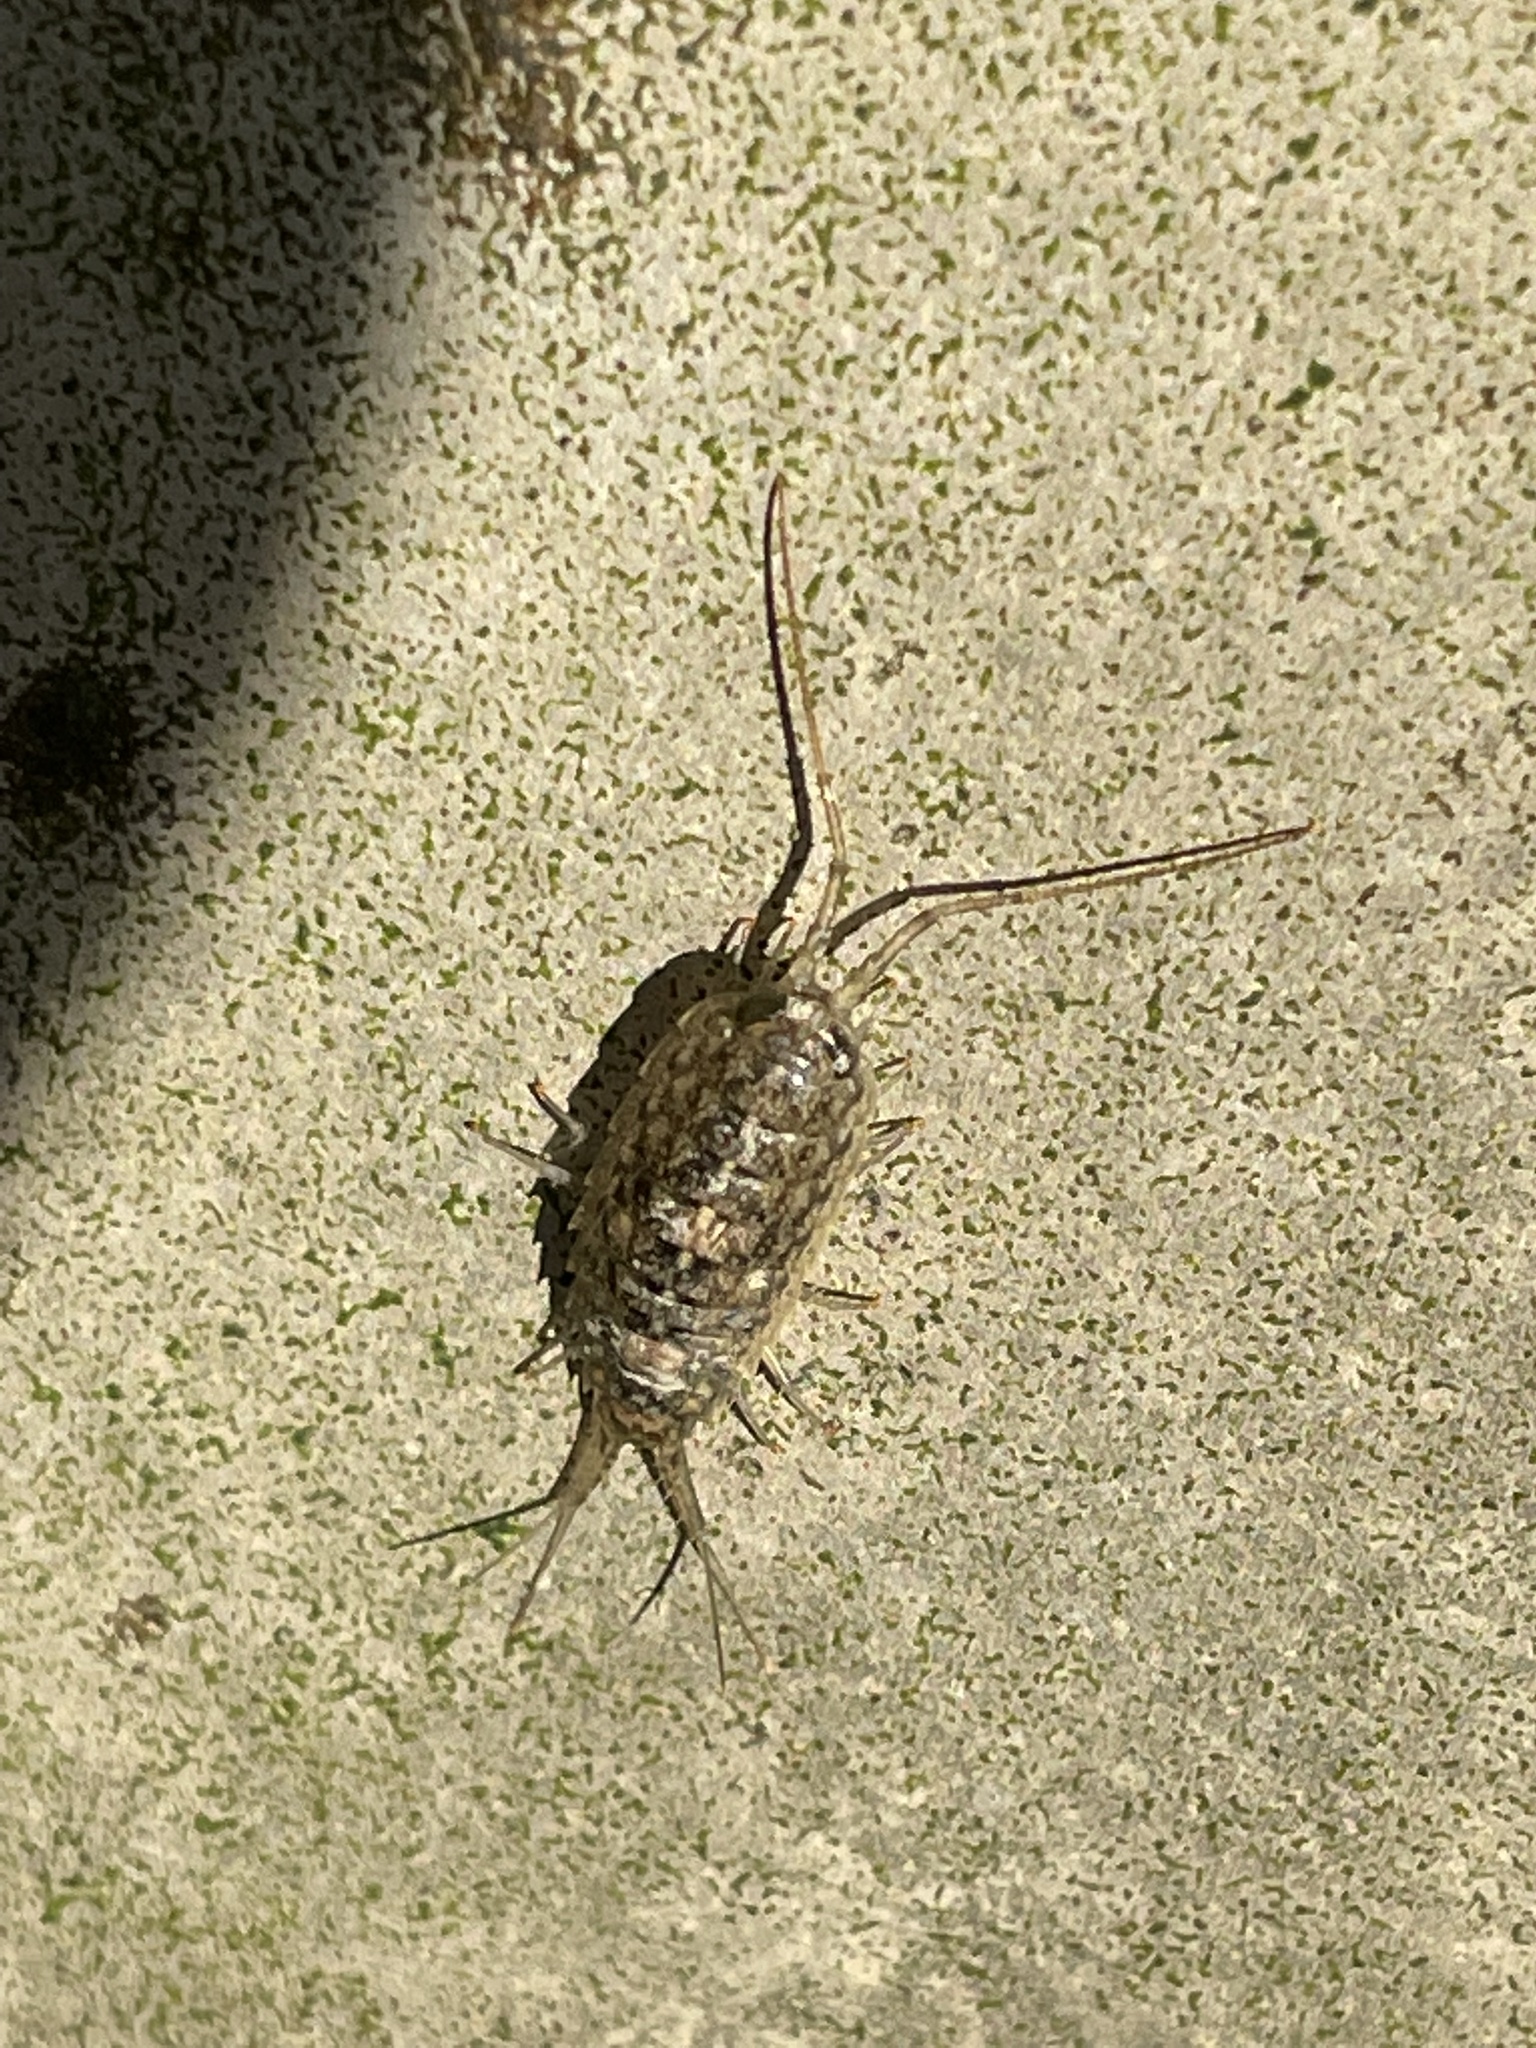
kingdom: Animalia
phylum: Arthropoda
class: Malacostraca
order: Isopoda
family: Ligiidae
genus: Ligia
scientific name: Ligia exotica
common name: Wharf roach
